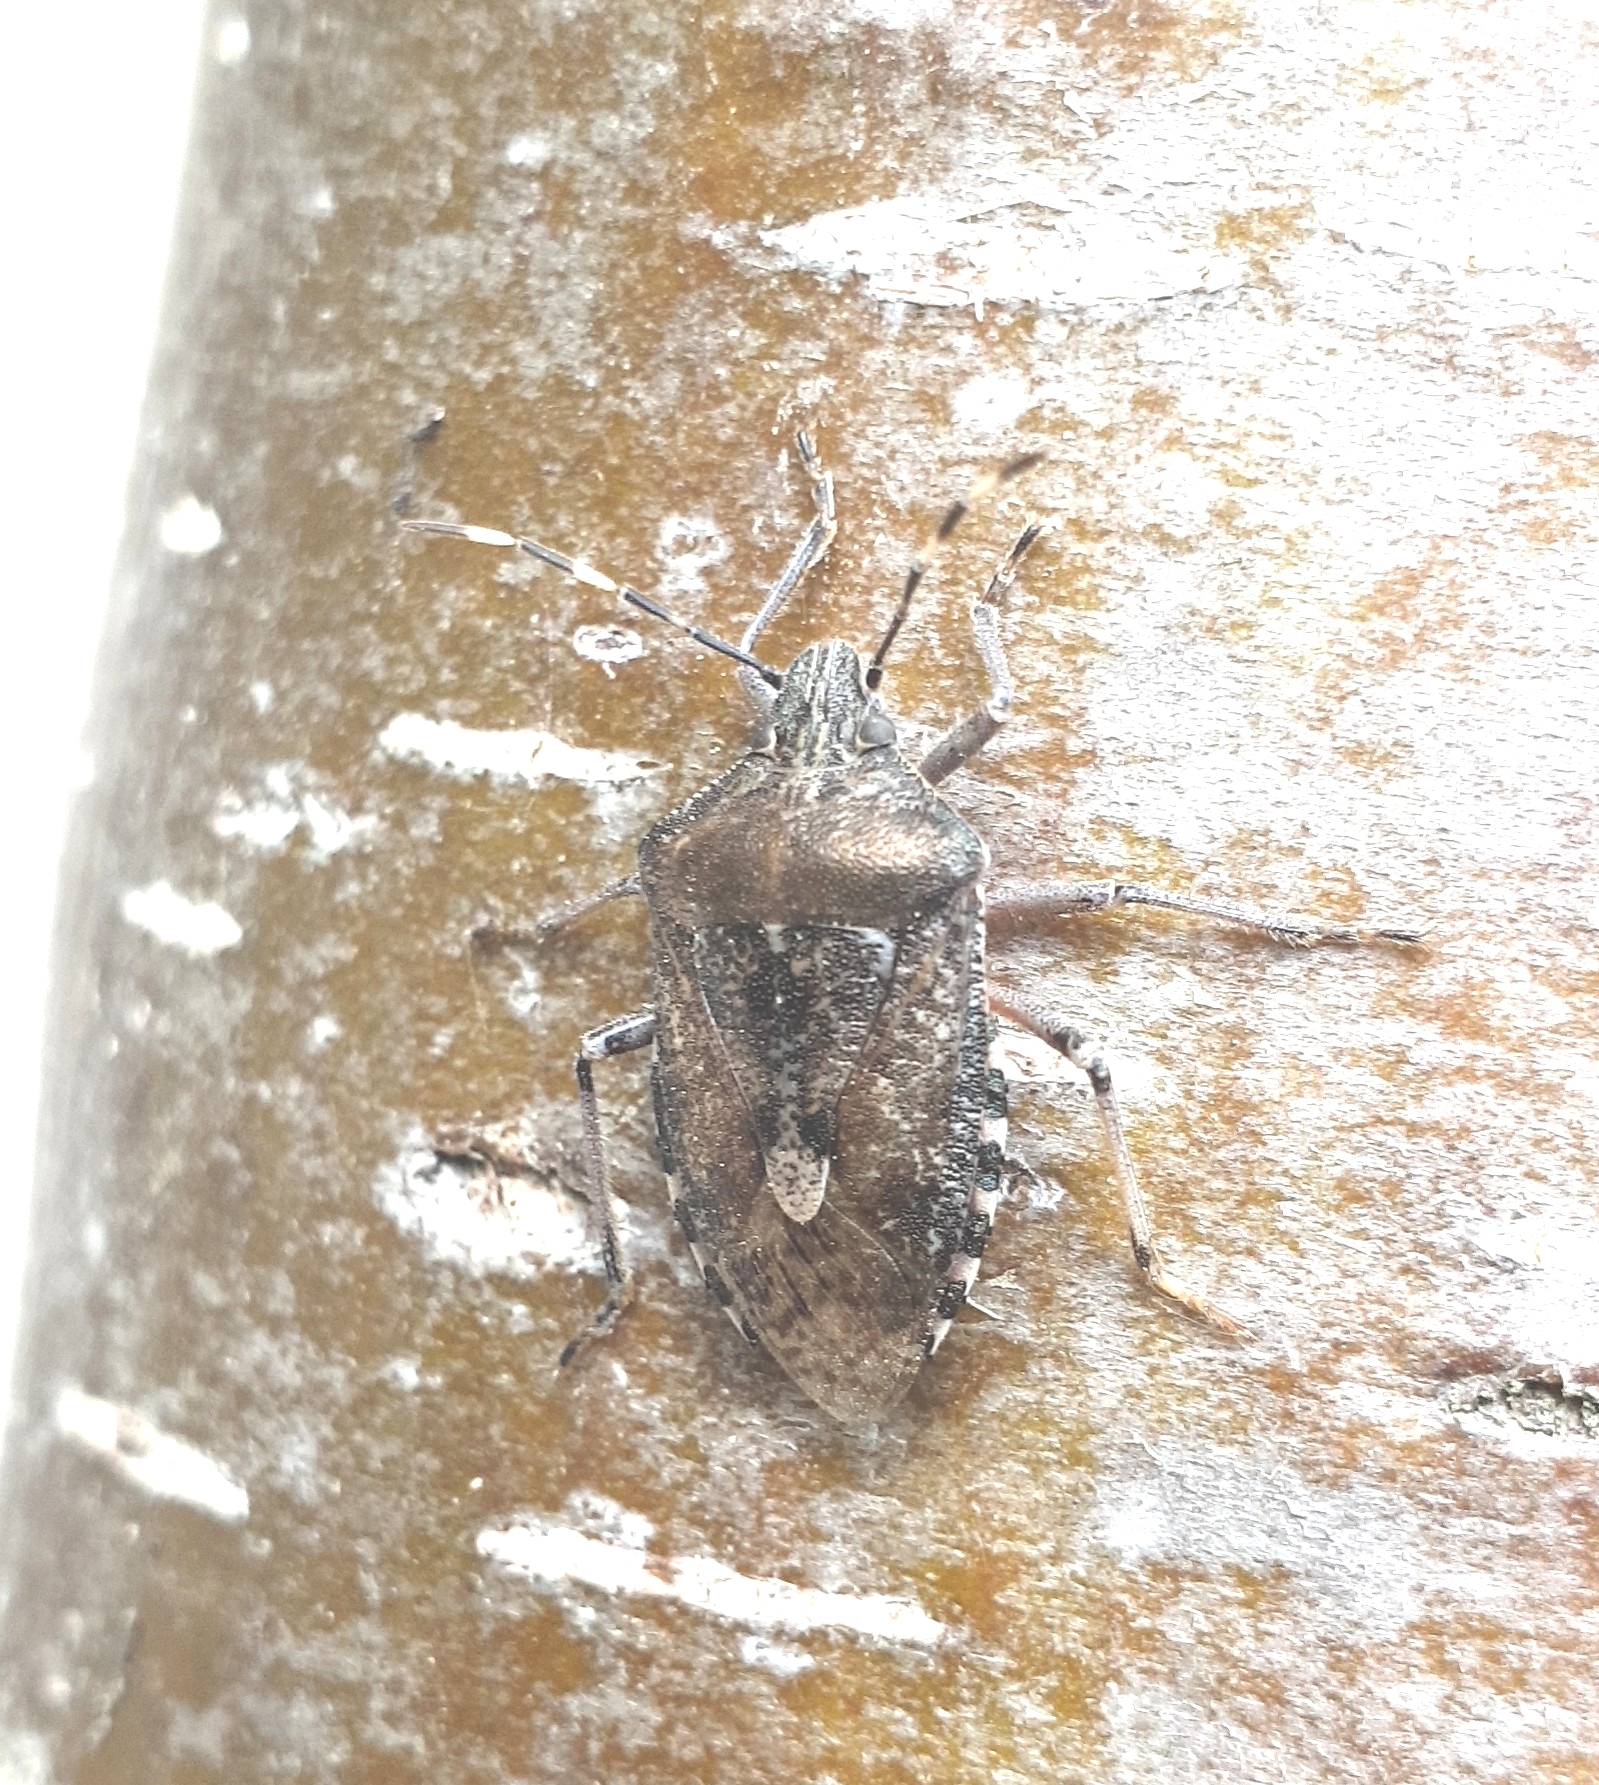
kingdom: Animalia
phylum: Arthropoda
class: Insecta
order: Hemiptera
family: Pentatomidae
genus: Rhaphigaster
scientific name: Rhaphigaster nebulosa
